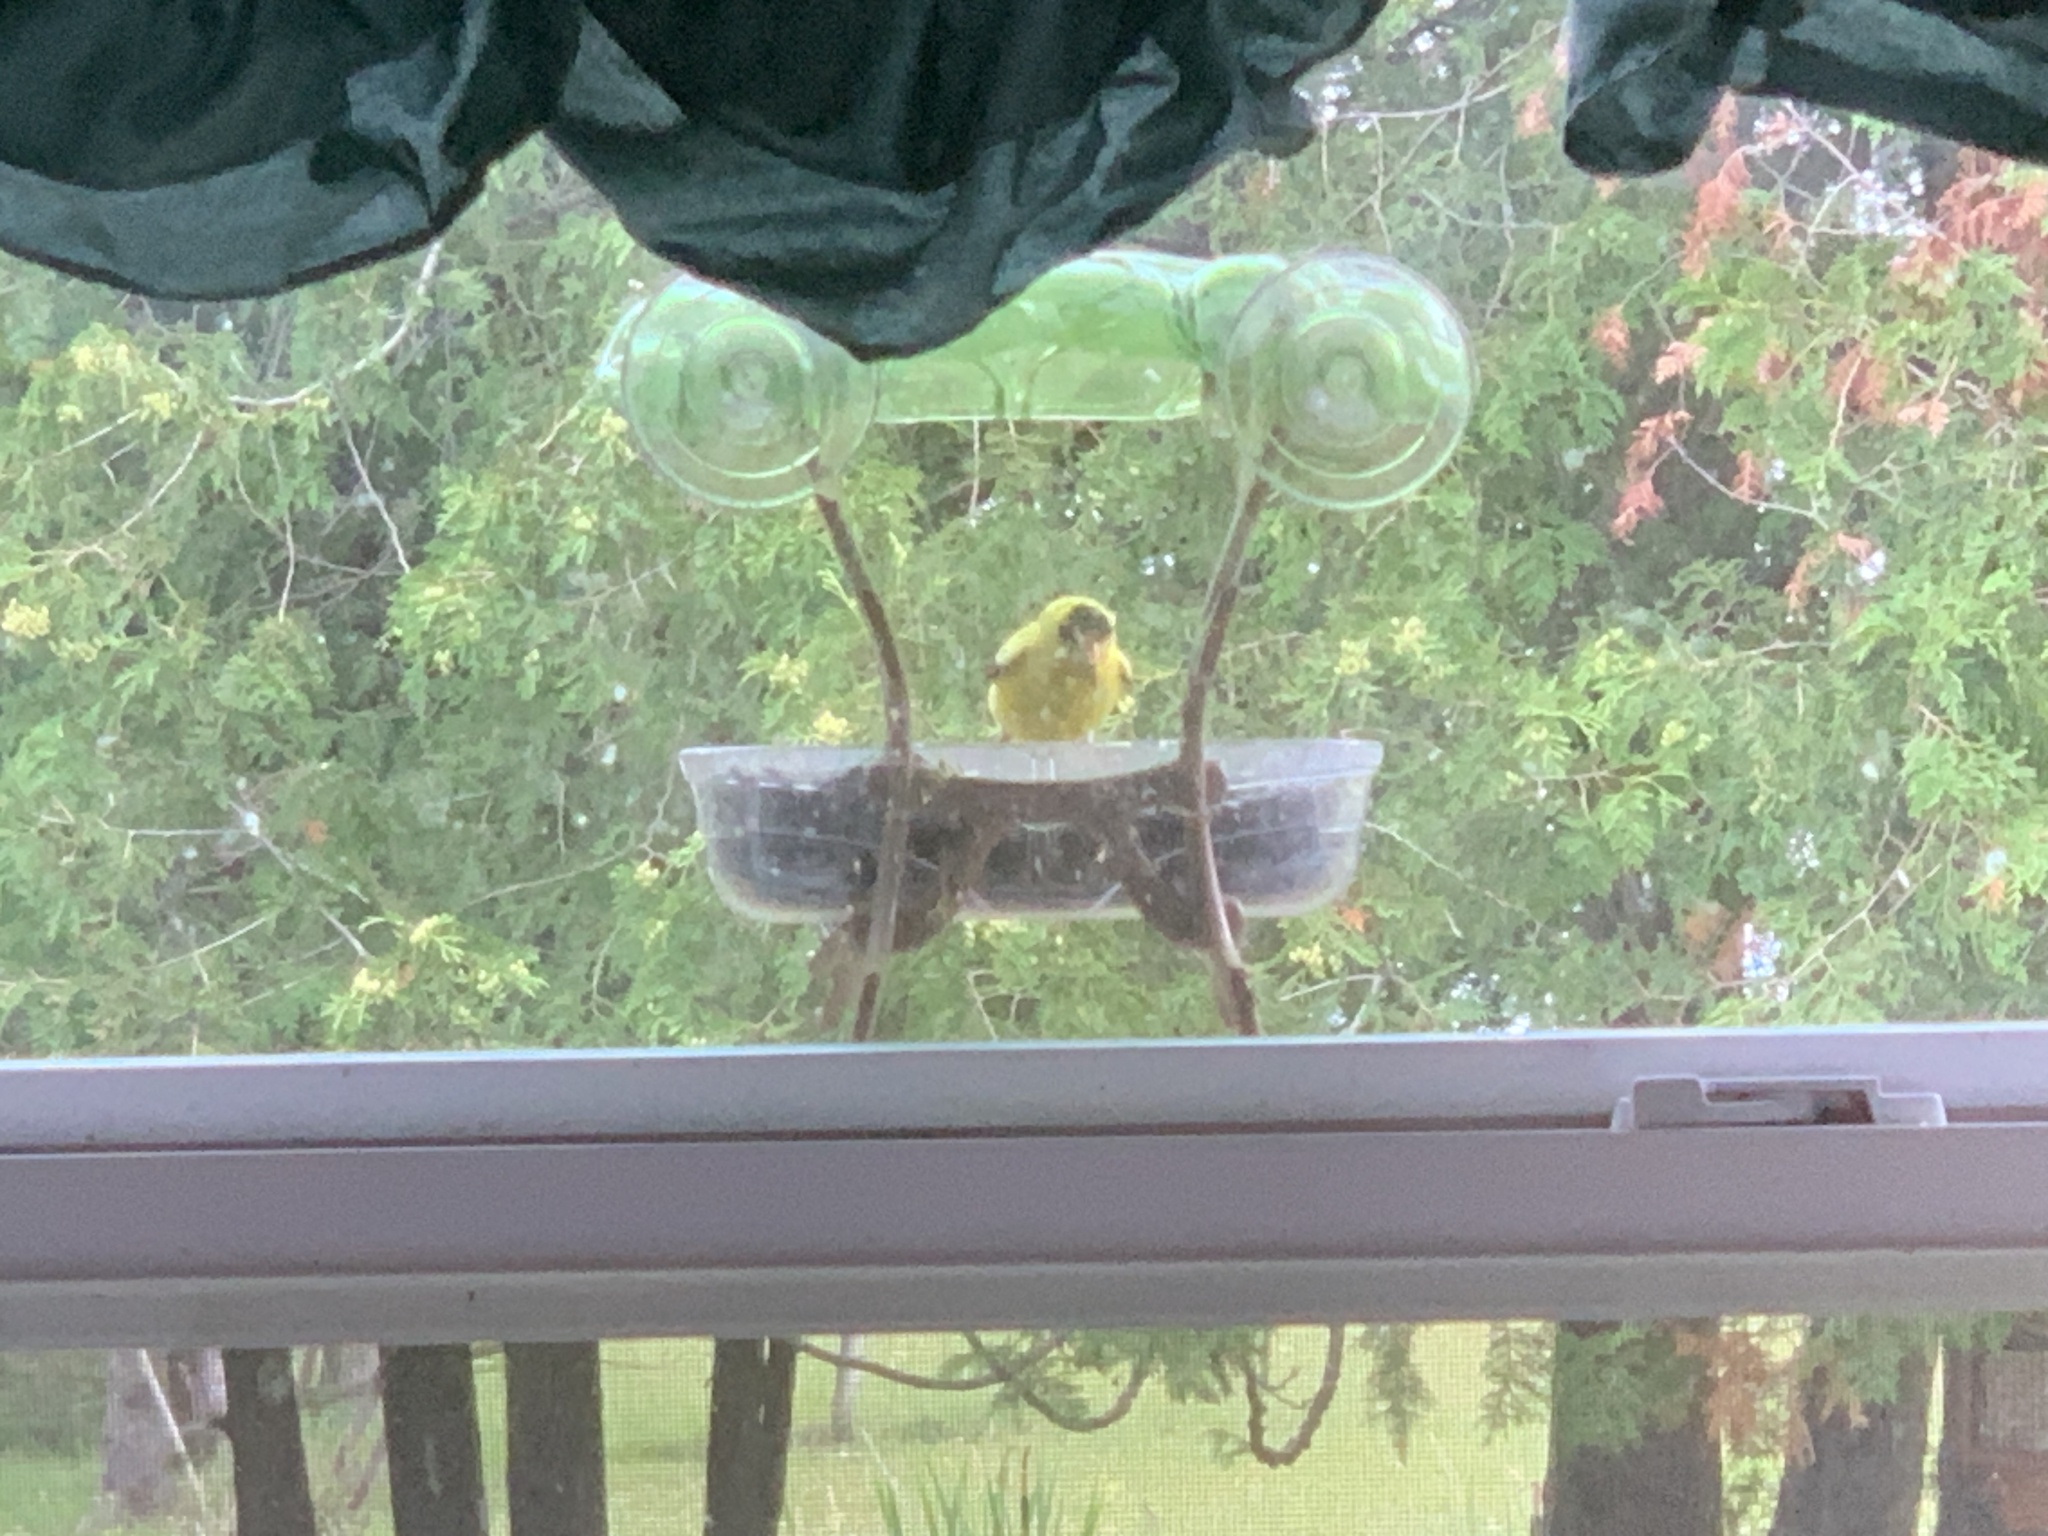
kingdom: Animalia
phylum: Chordata
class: Aves
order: Passeriformes
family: Fringillidae
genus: Spinus
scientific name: Spinus tristis
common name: American goldfinch
